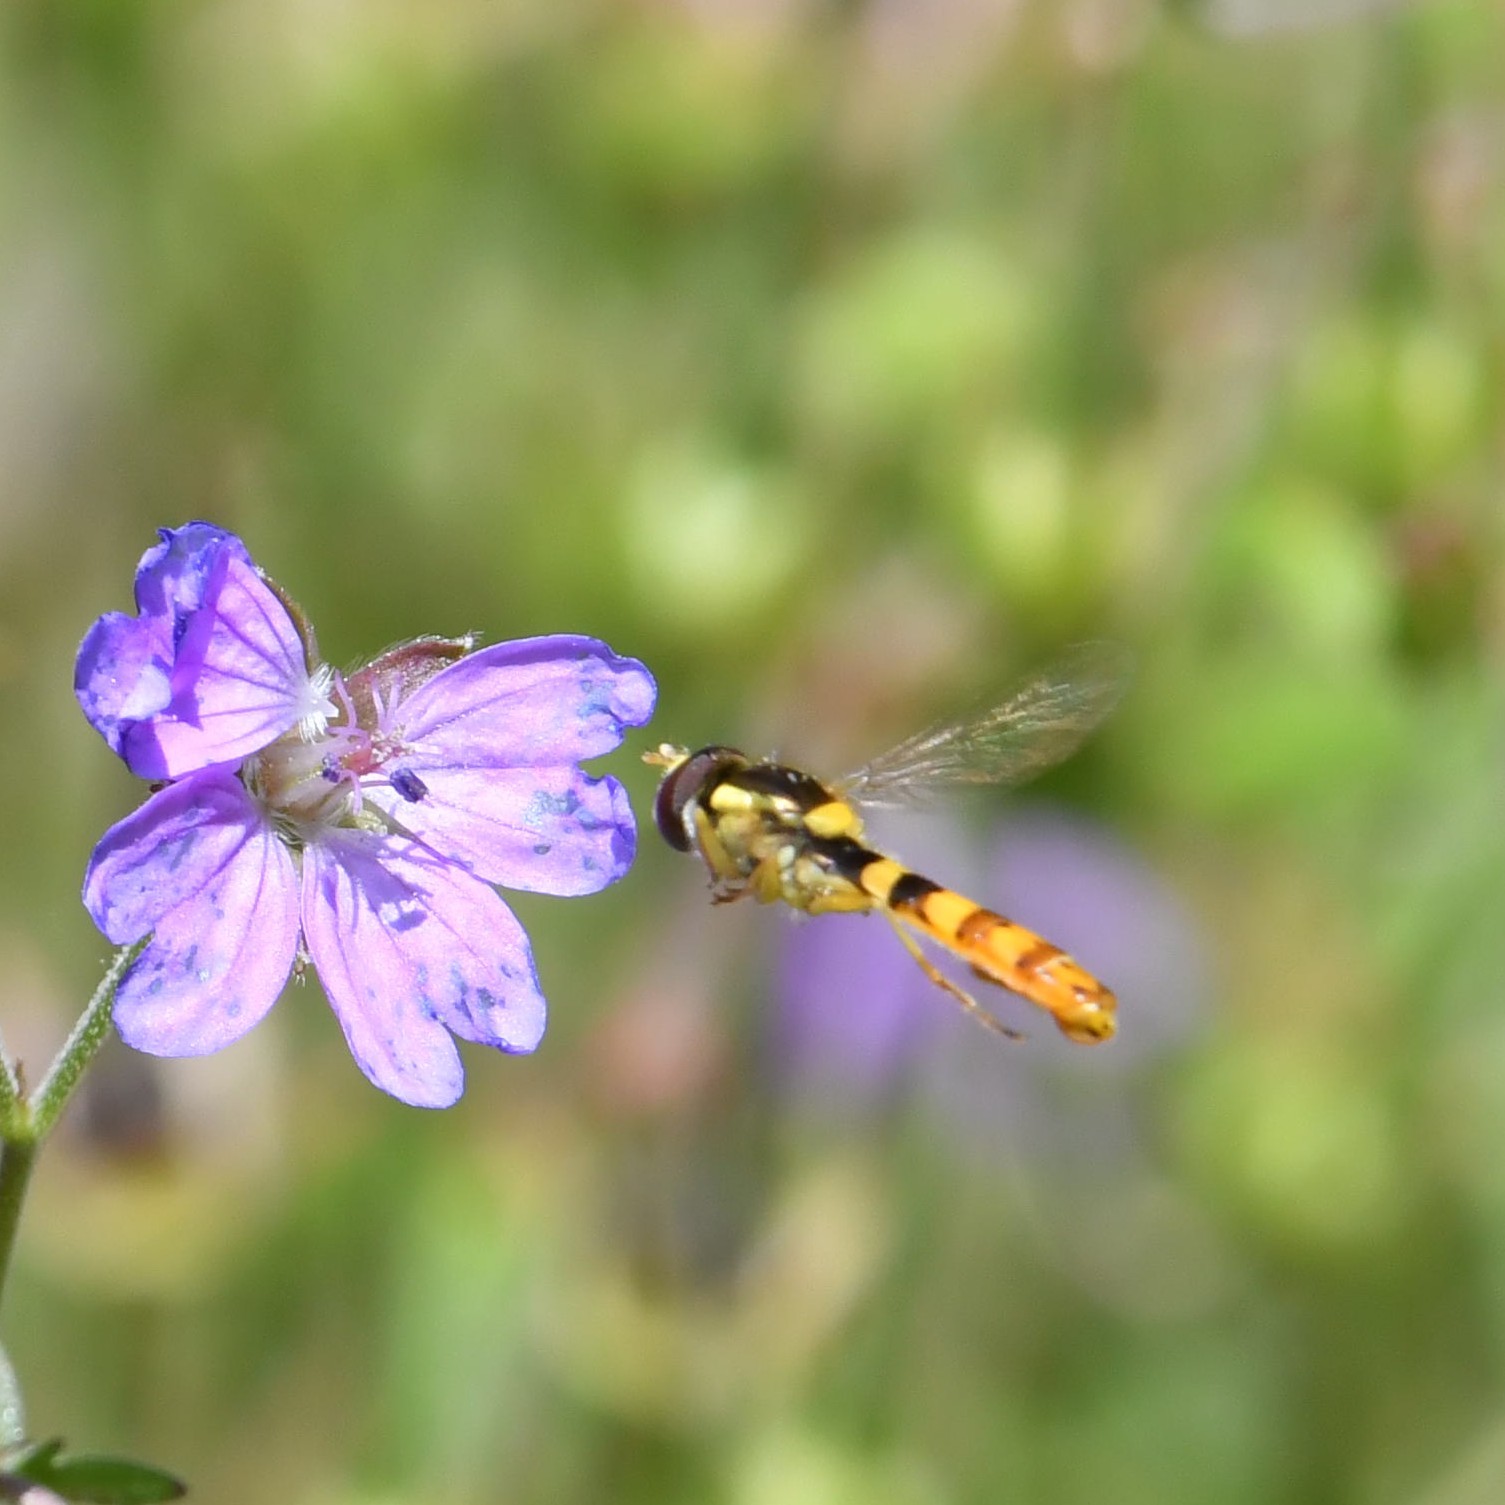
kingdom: Animalia
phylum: Arthropoda
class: Insecta
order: Diptera
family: Syrphidae
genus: Sphaerophoria
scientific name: Sphaerophoria scripta
